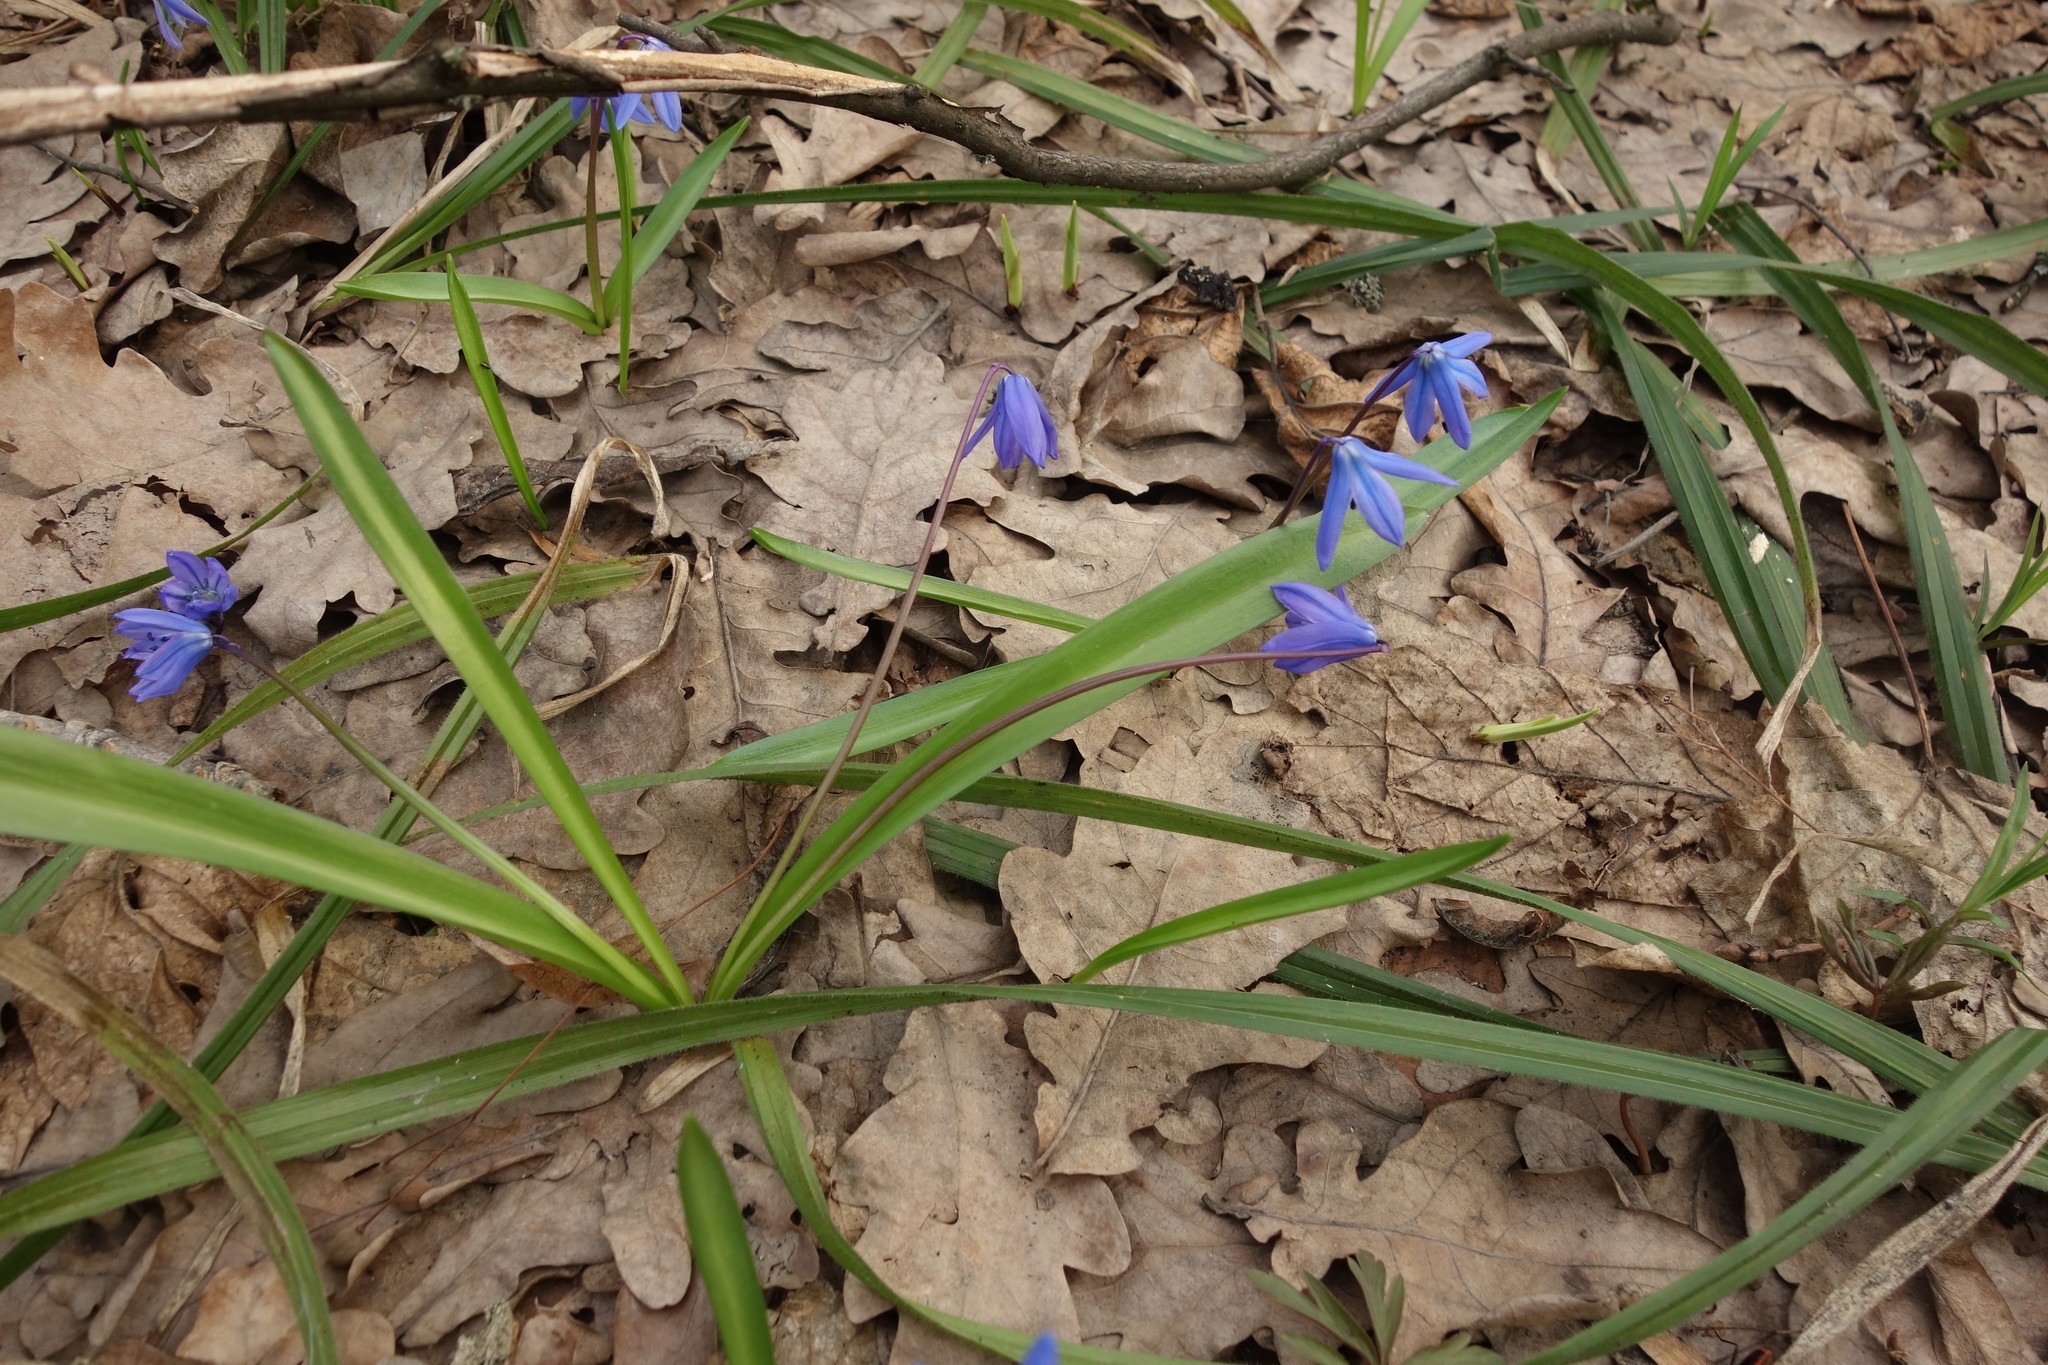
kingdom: Plantae
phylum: Tracheophyta
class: Liliopsida
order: Asparagales
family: Asparagaceae
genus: Scilla
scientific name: Scilla siberica
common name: Siberian squill
